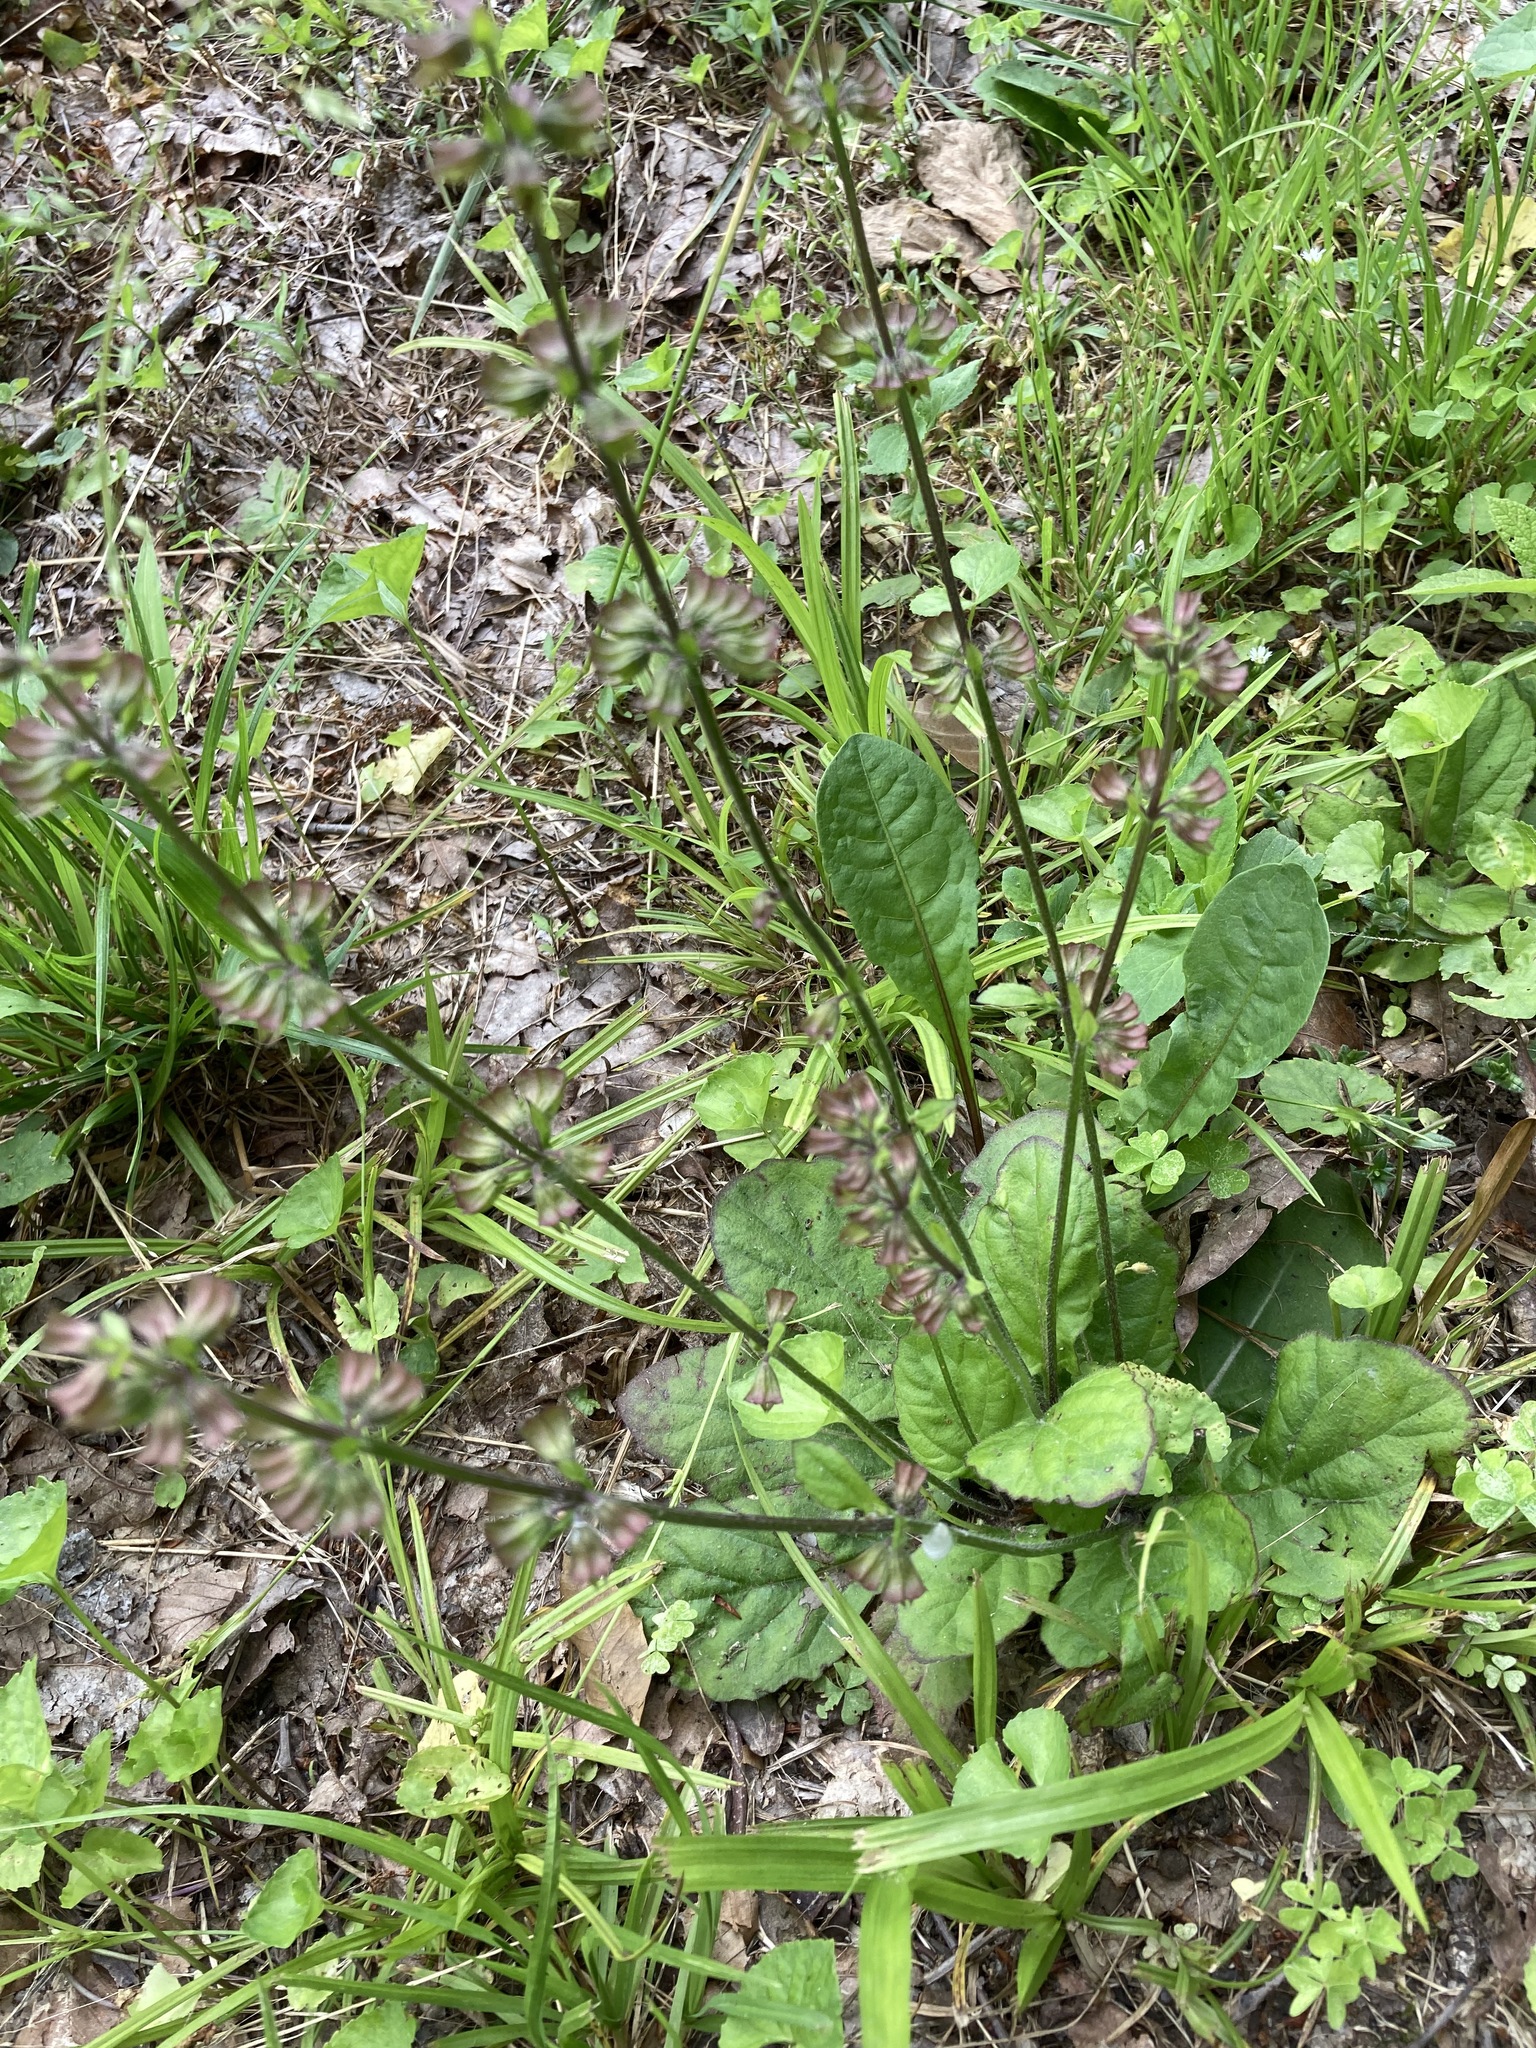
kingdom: Plantae
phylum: Tracheophyta
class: Magnoliopsida
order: Lamiales
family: Lamiaceae
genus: Salvia
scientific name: Salvia lyrata
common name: Cancerweed
